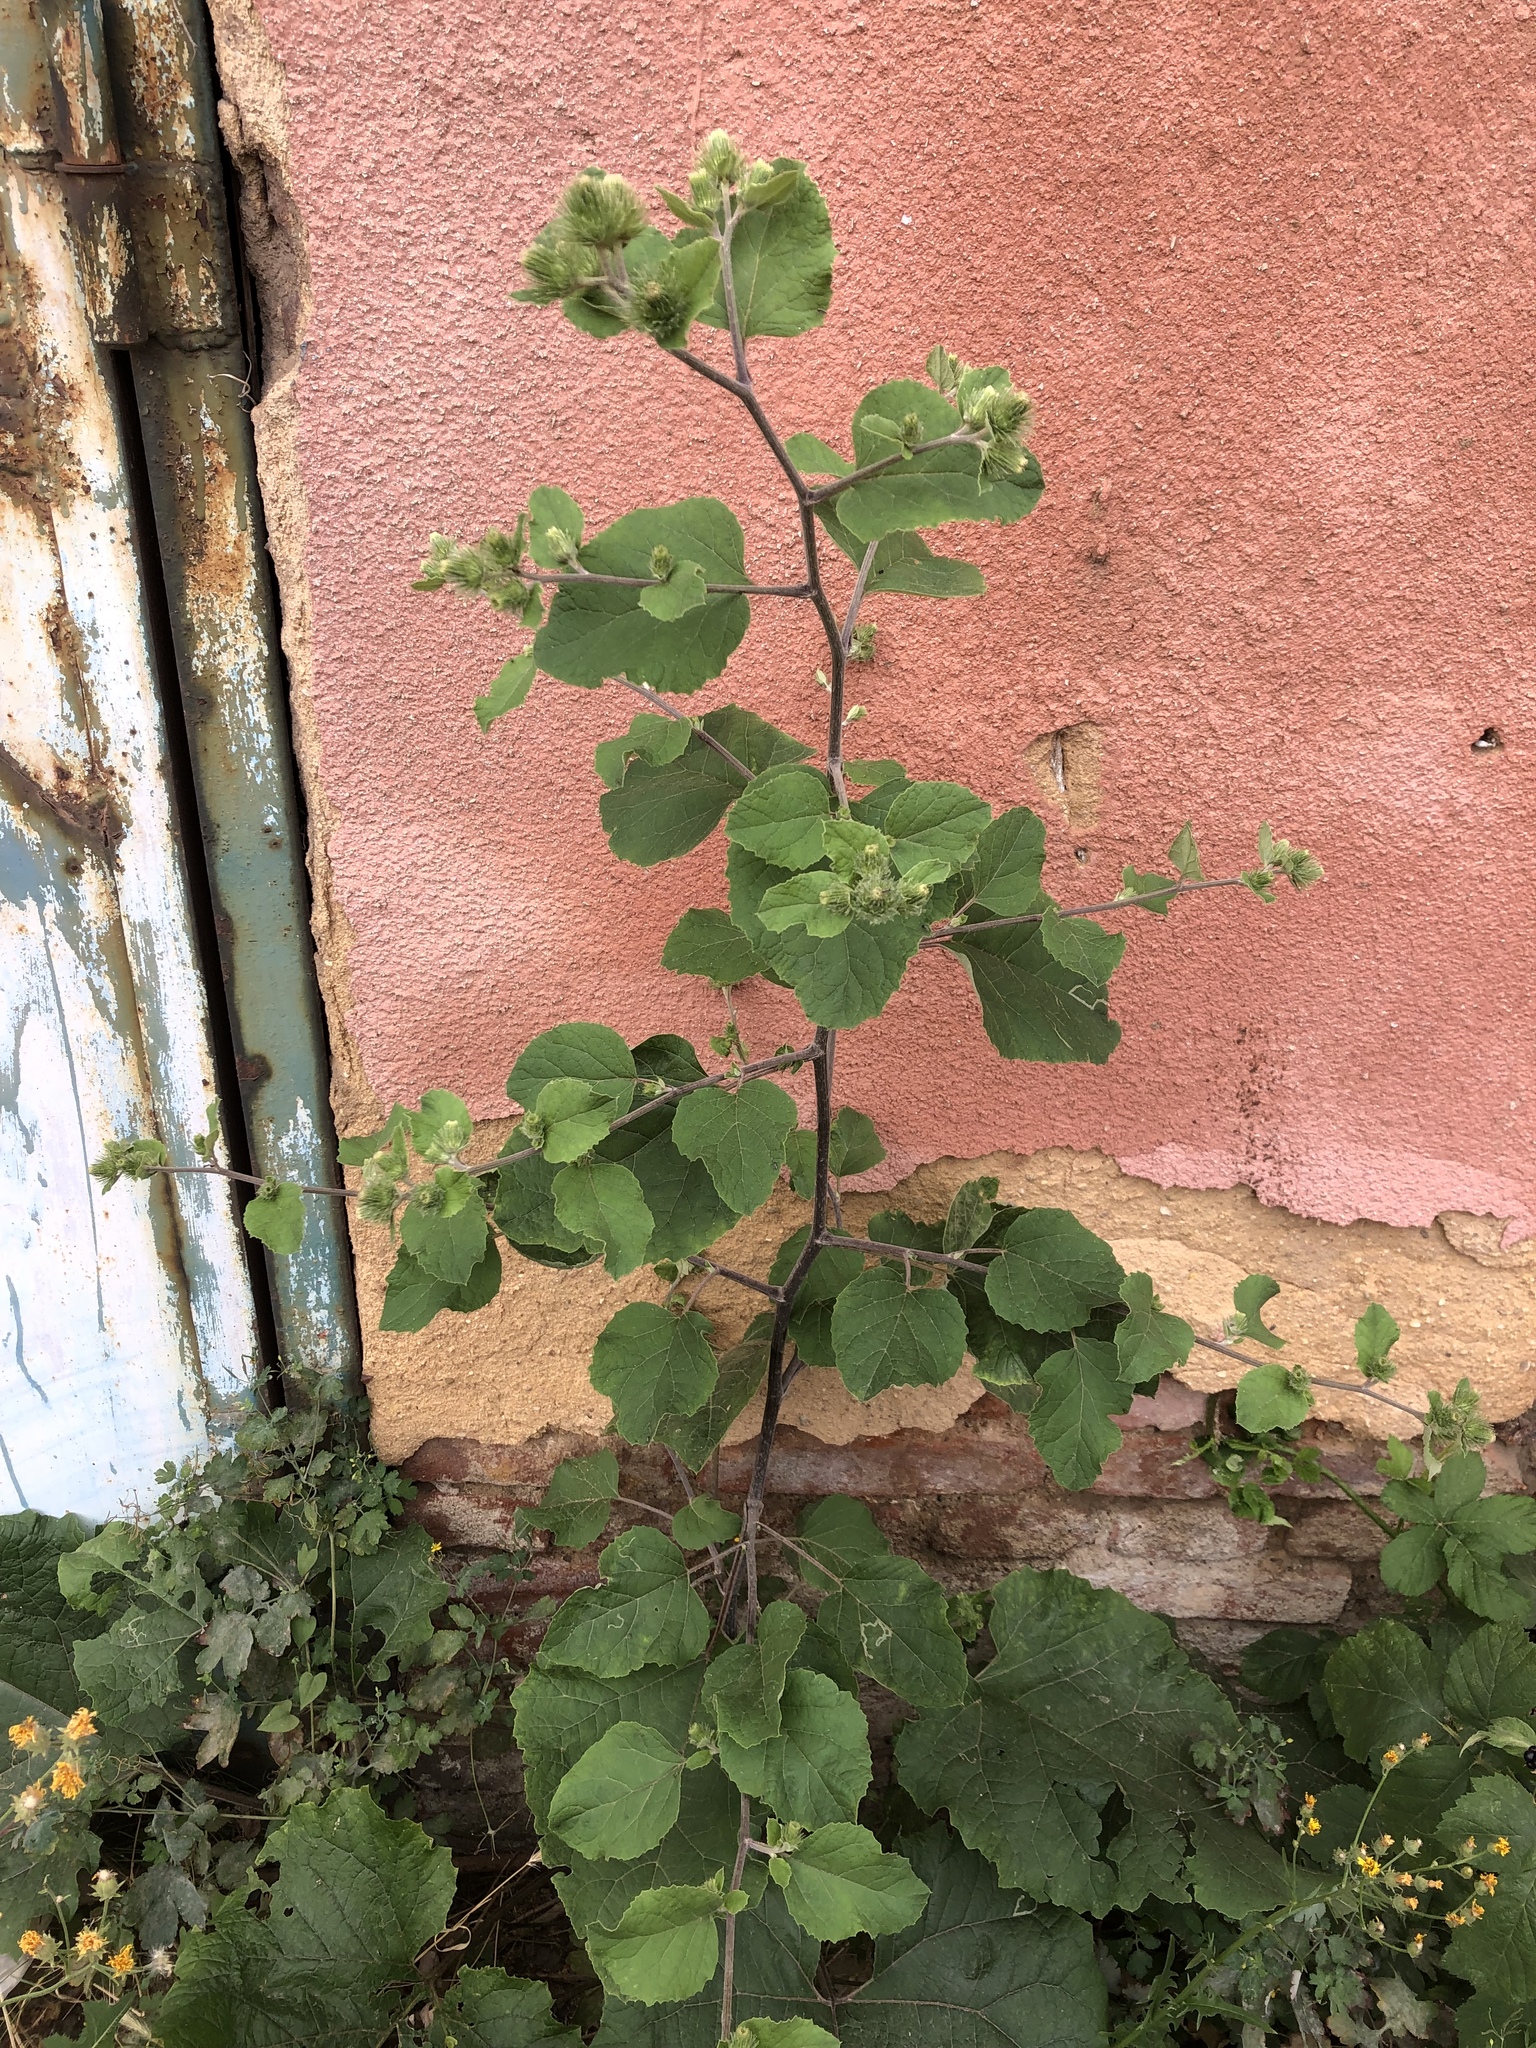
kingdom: Plantae
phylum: Tracheophyta
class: Magnoliopsida
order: Asterales
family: Asteraceae
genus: Arctium
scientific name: Arctium minus
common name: Lesser burdock
